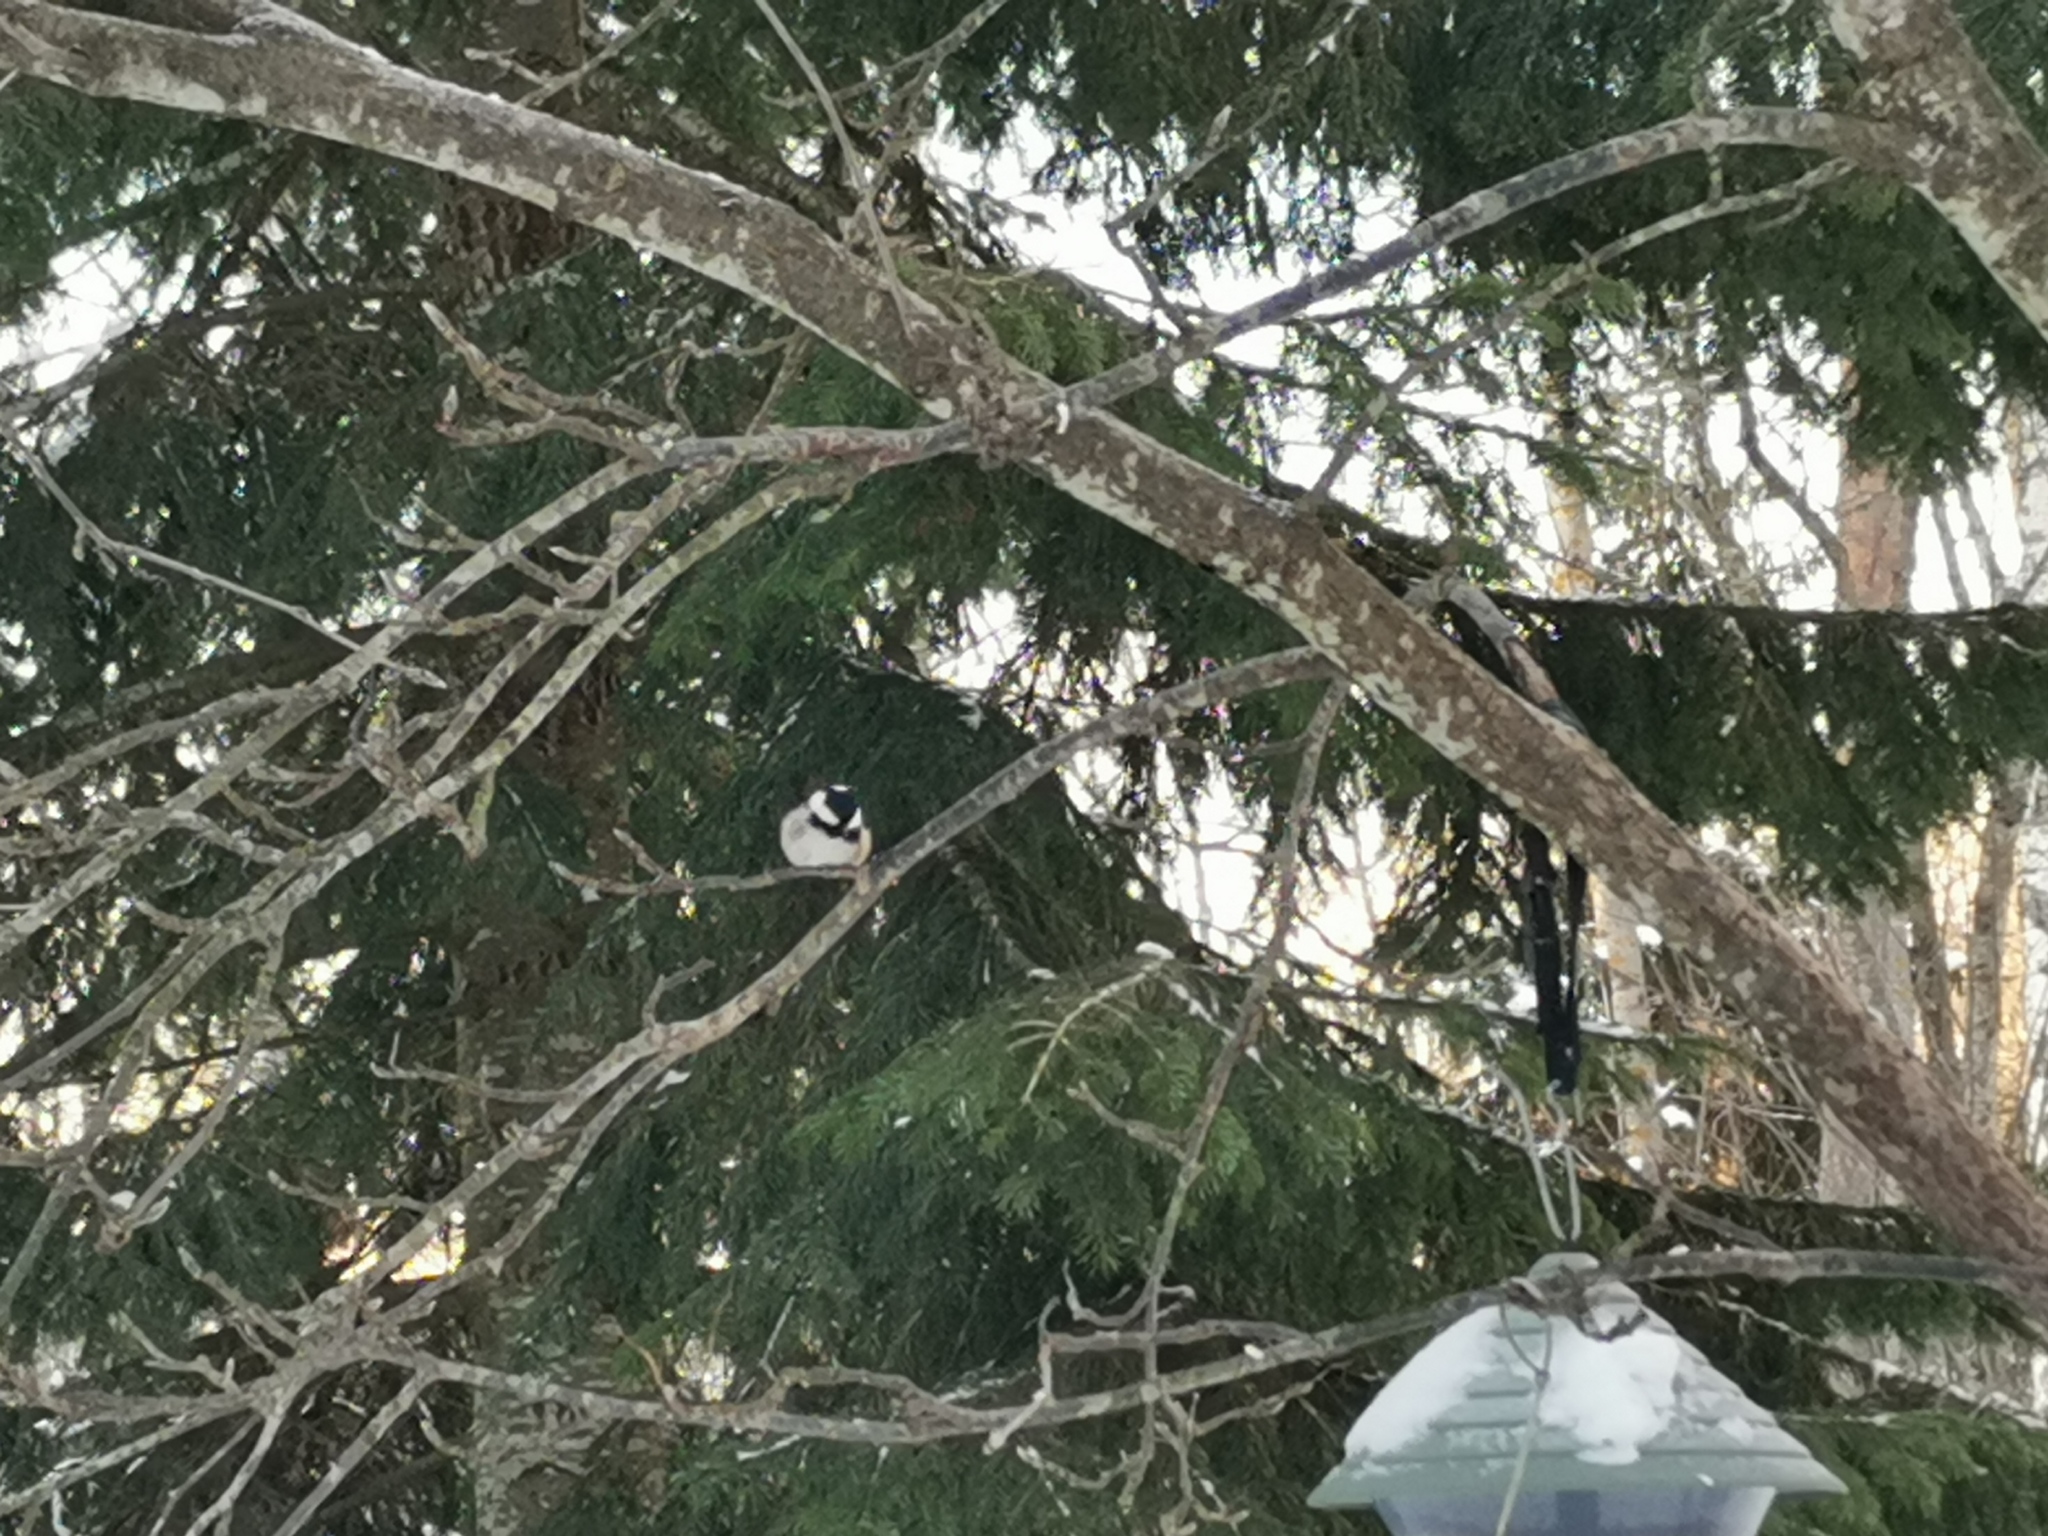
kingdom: Animalia
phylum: Chordata
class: Aves
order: Passeriformes
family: Paridae
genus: Periparus
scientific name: Periparus ater
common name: Coal tit
